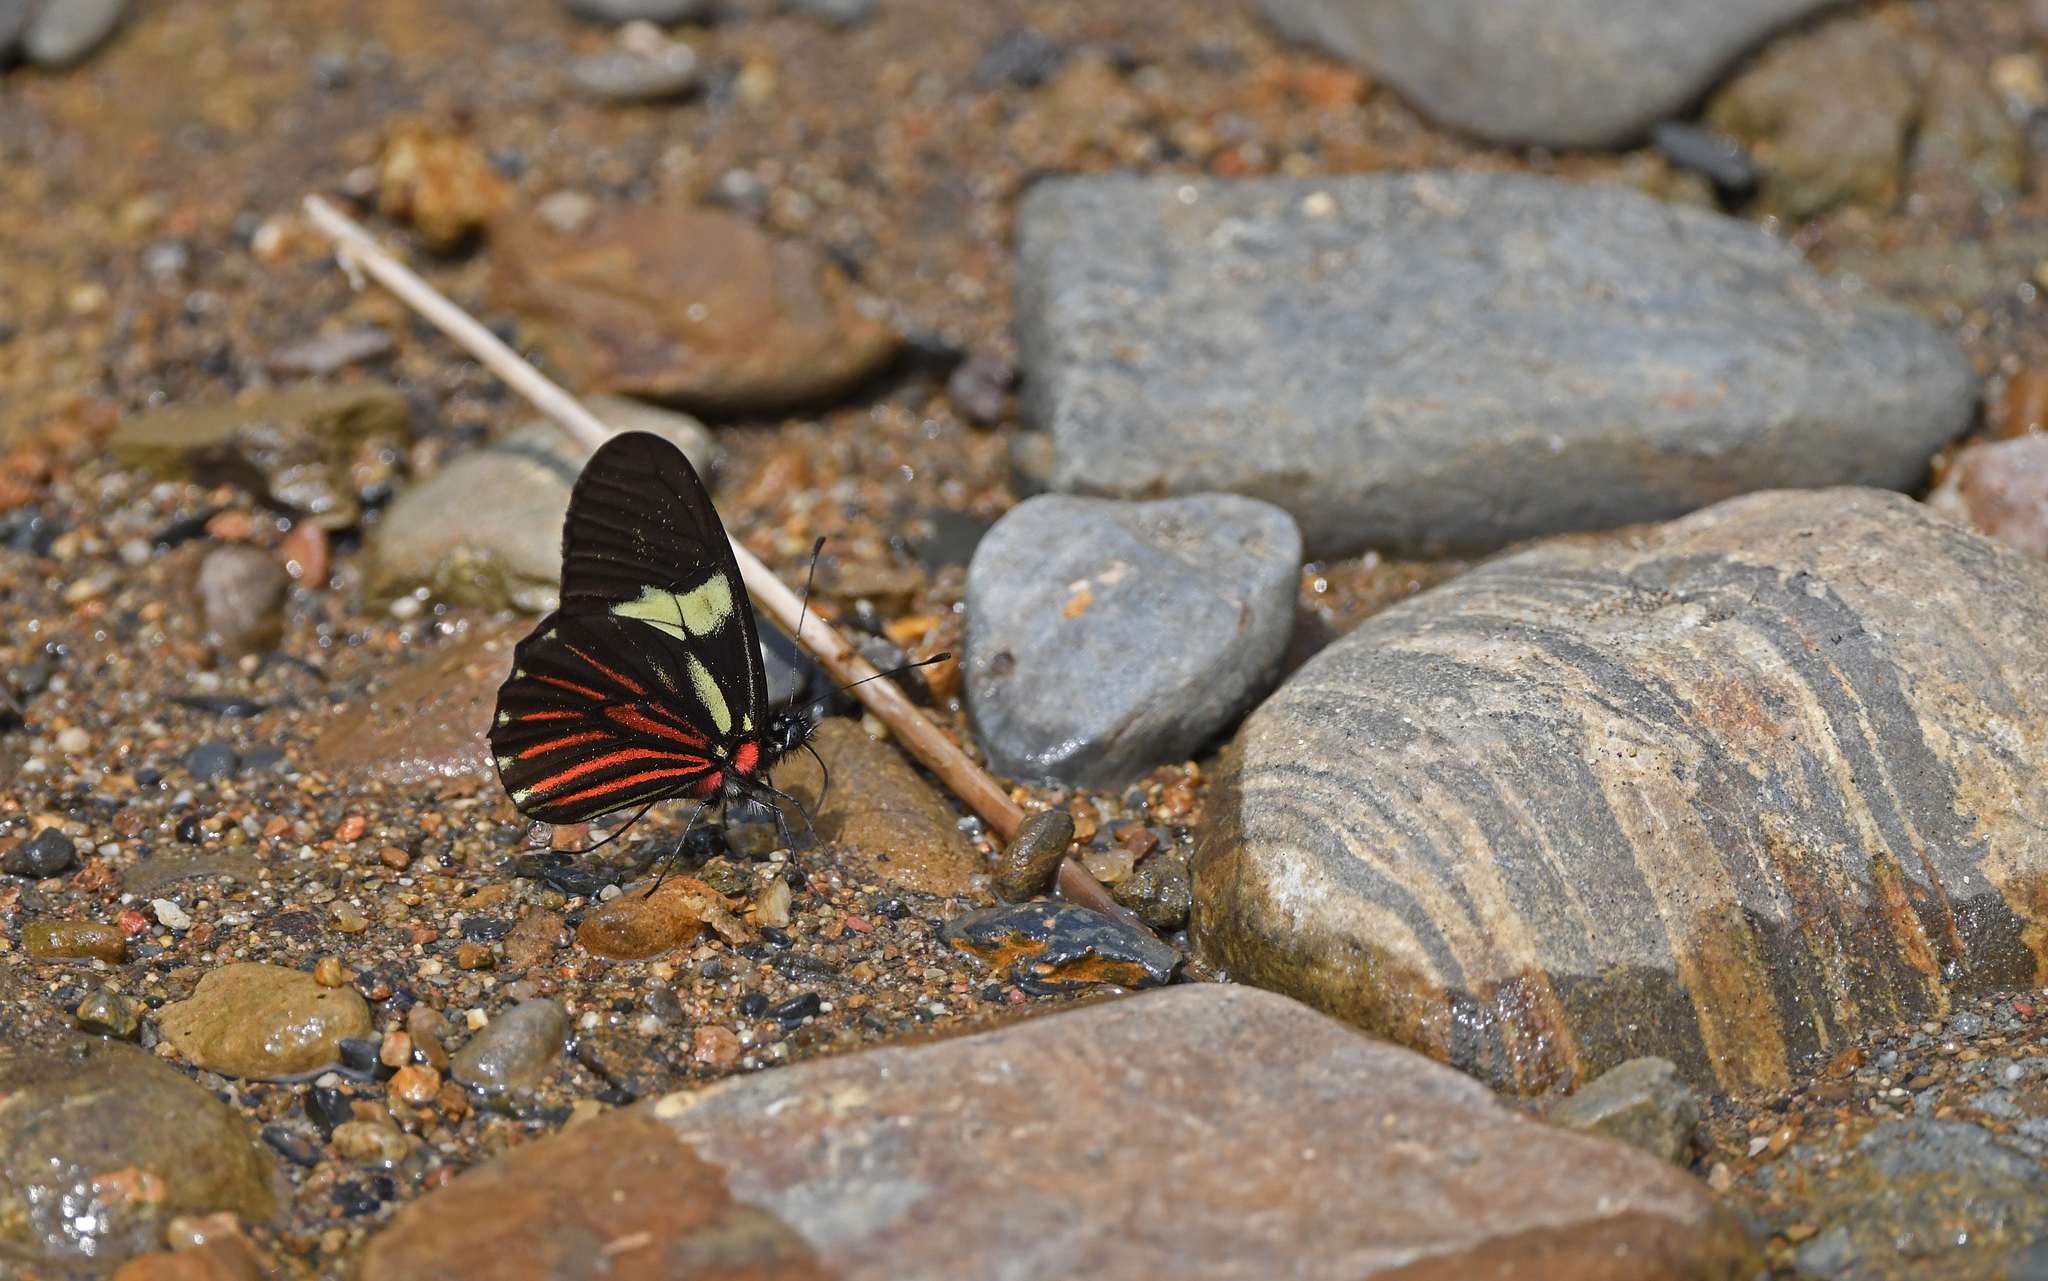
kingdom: Animalia
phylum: Arthropoda
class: Insecta
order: Lepidoptera
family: Pieridae
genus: Archonias
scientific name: Archonias brassolis
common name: Cattleheart white
